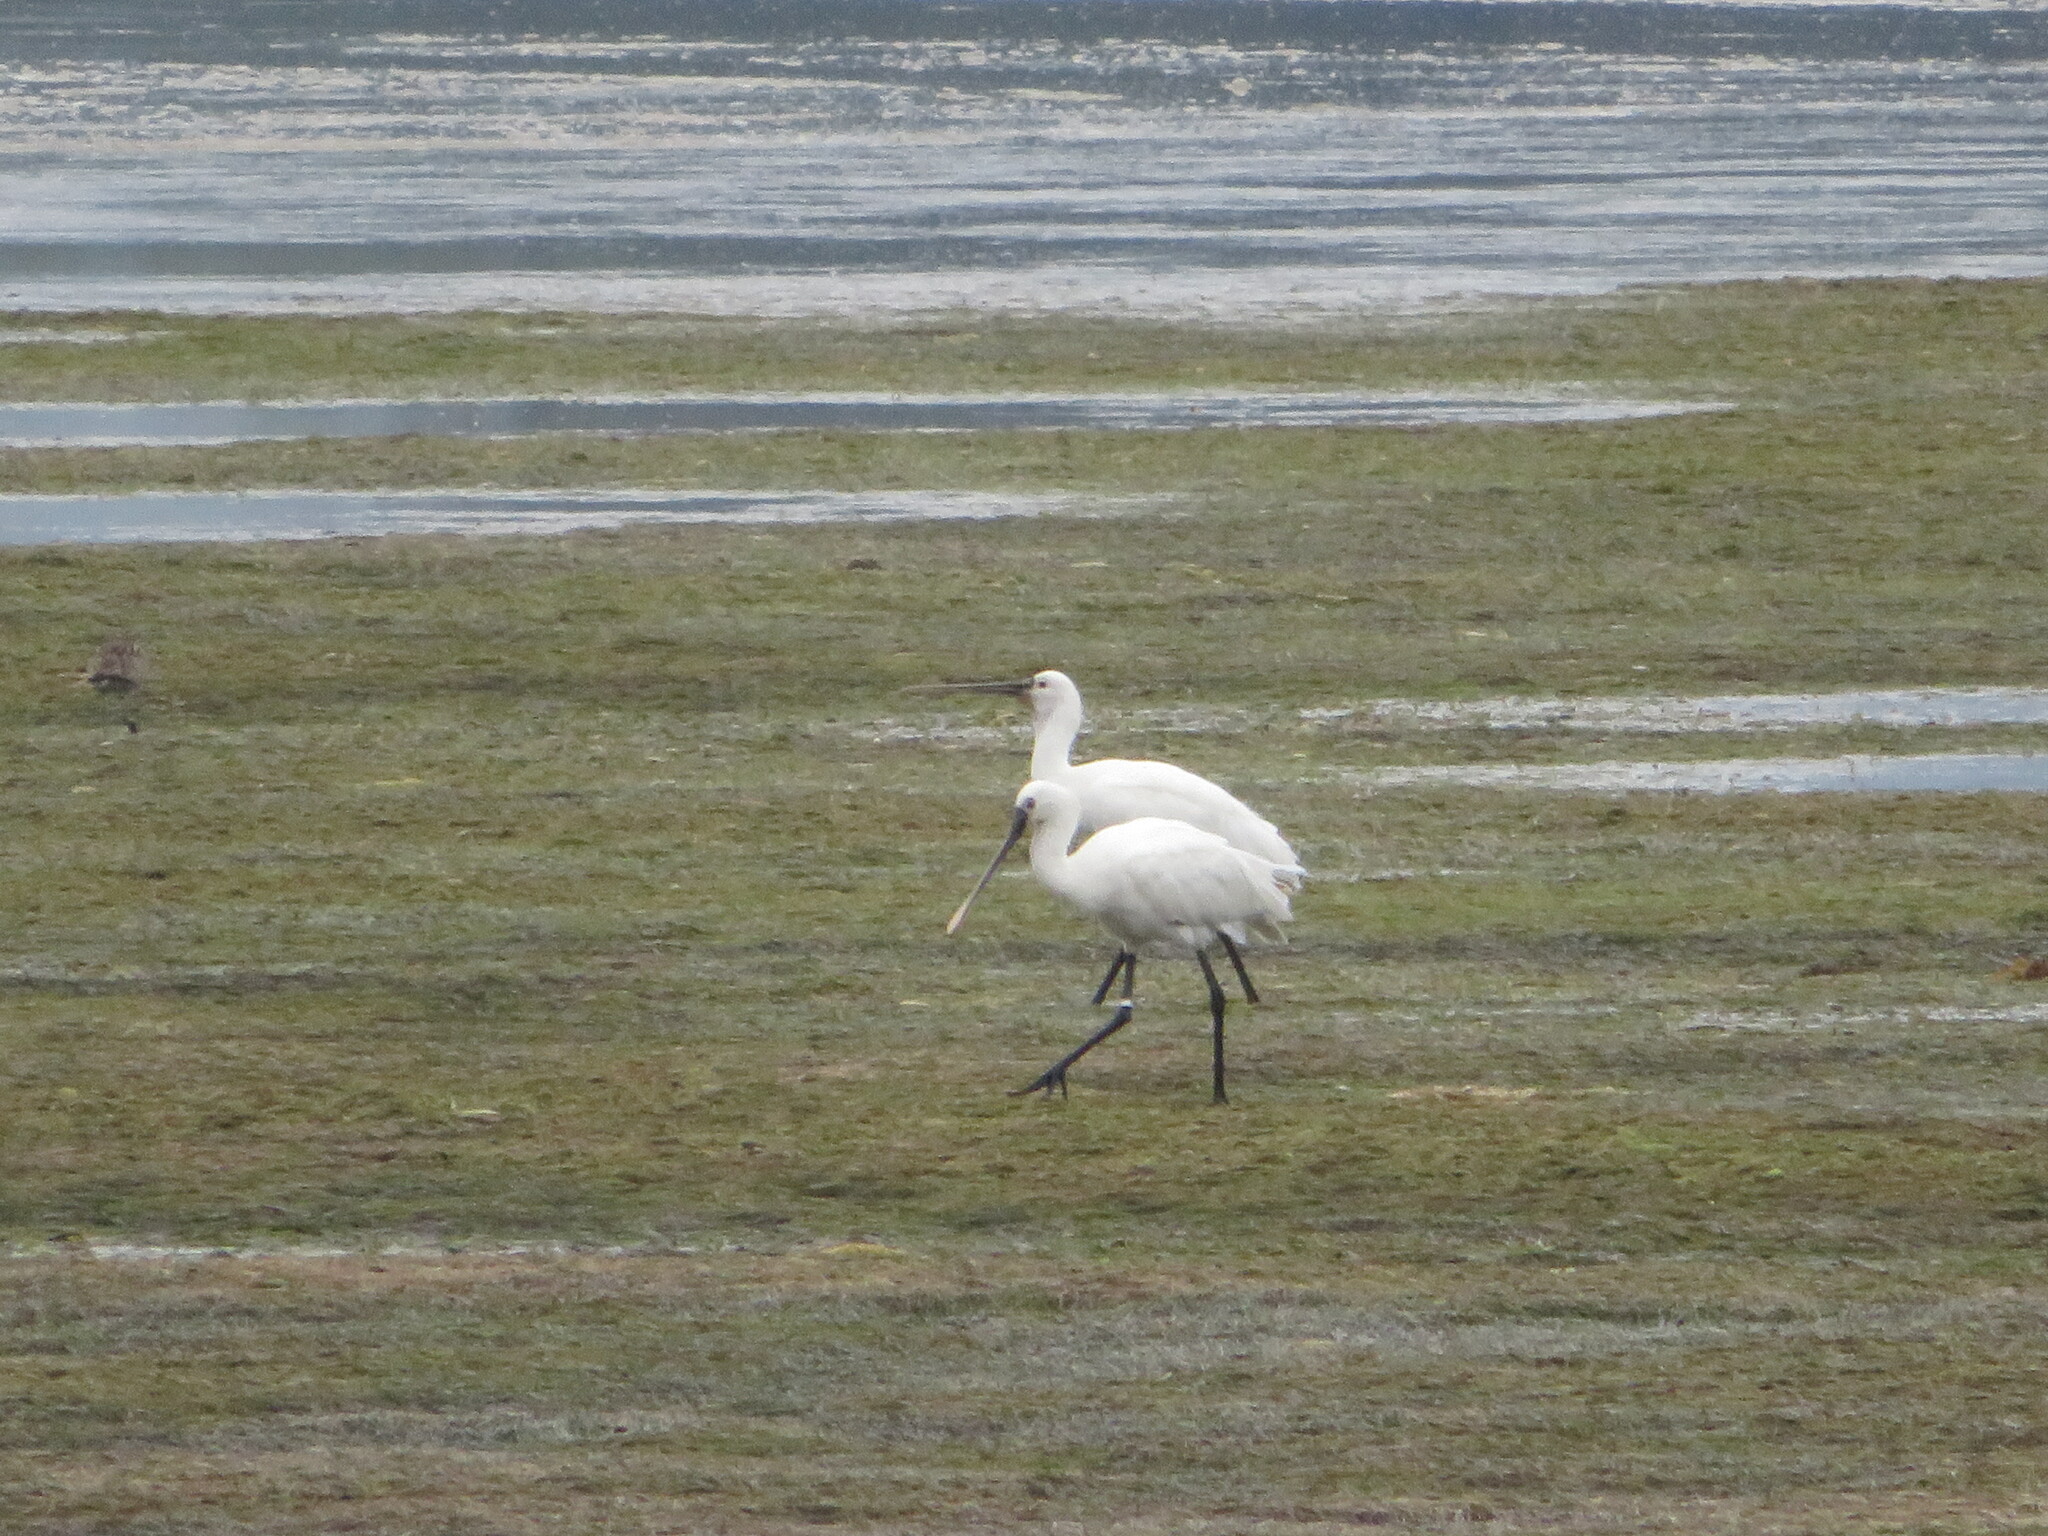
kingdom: Animalia
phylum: Chordata
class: Aves
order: Pelecaniformes
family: Threskiornithidae
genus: Platalea
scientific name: Platalea leucorodia
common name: Eurasian spoonbill
